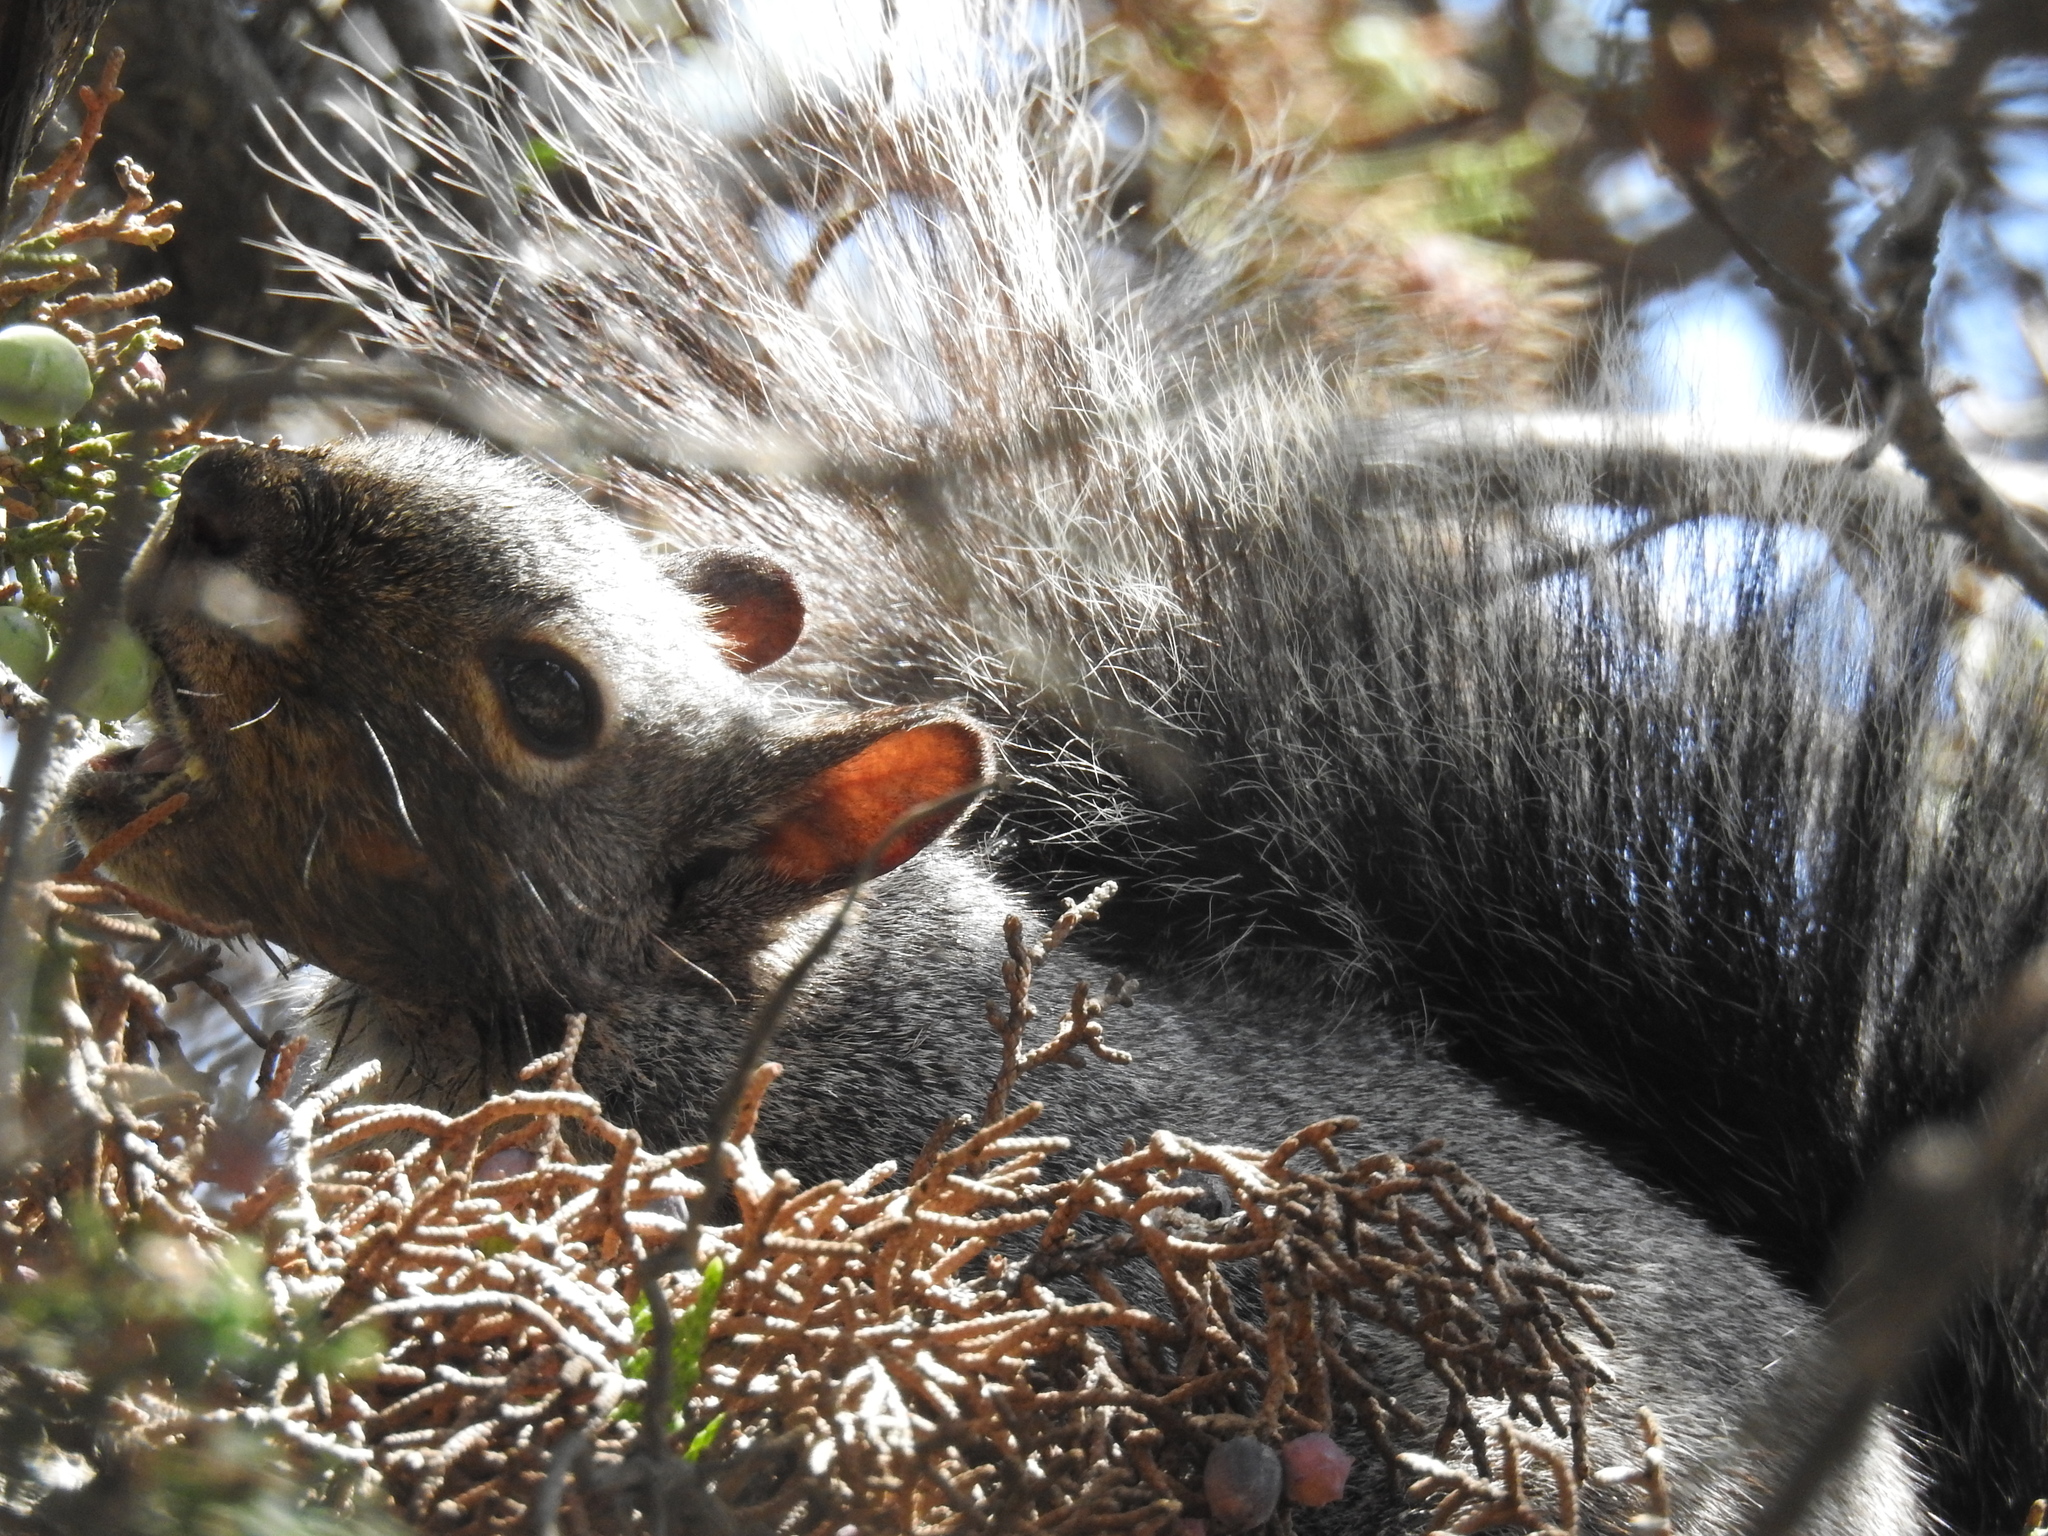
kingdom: Animalia
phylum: Chordata
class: Mammalia
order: Rodentia
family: Sciuridae
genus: Sciurus
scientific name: Sciurus griseus
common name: Western gray squirrel
